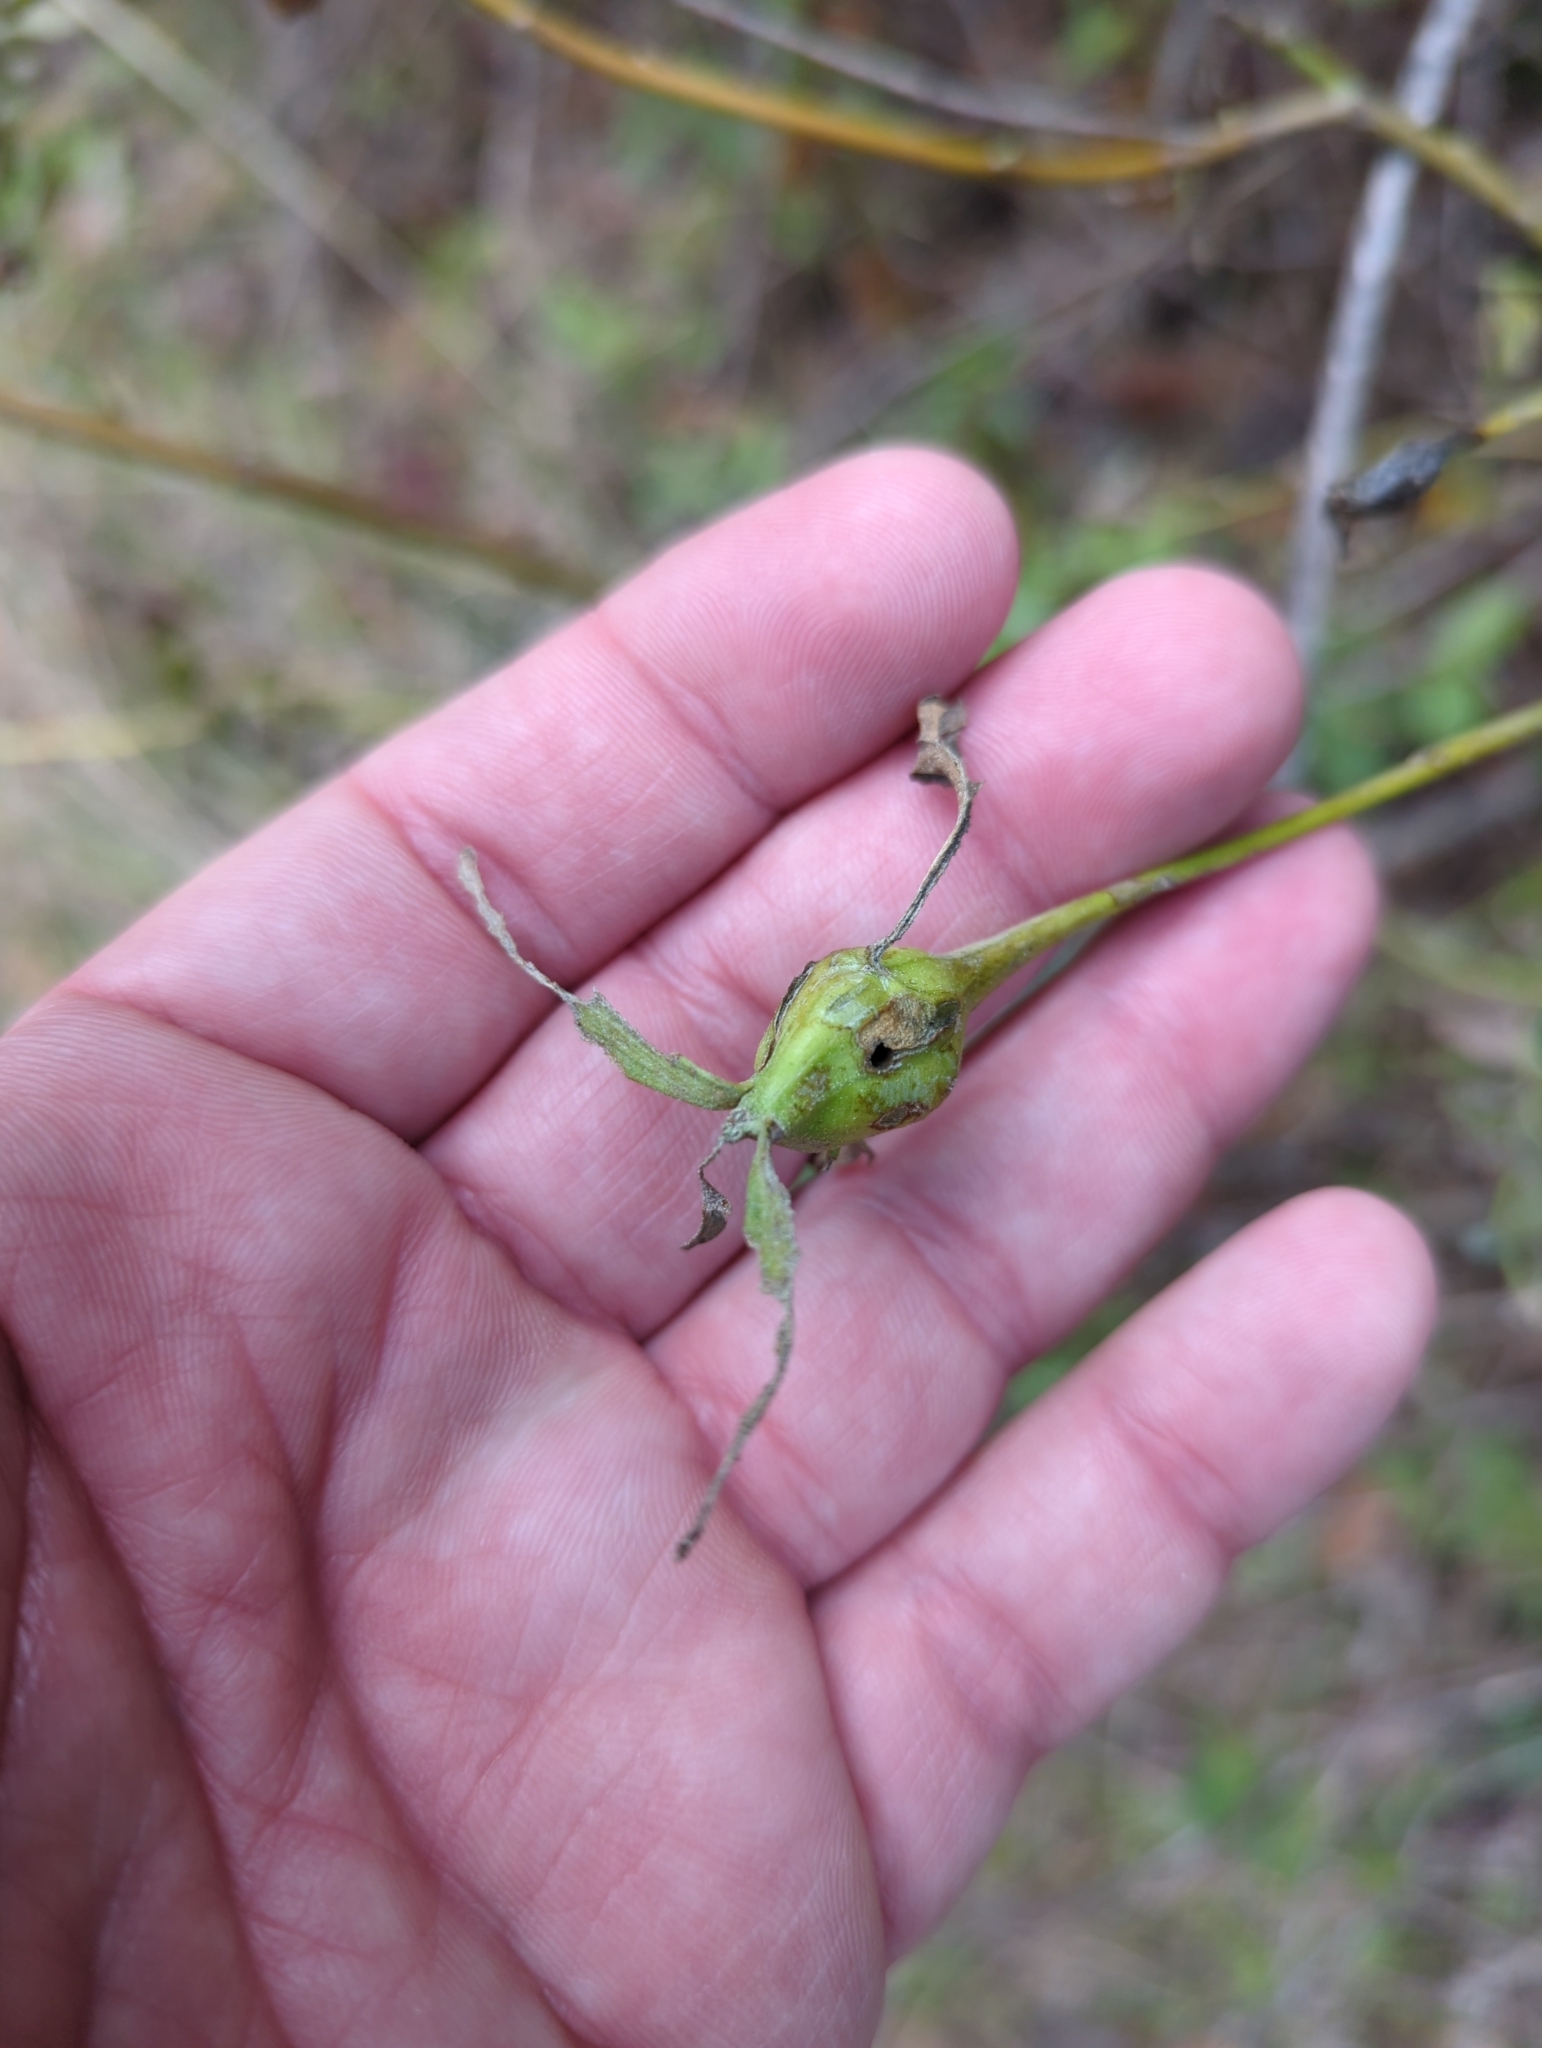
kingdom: Animalia
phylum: Arthropoda
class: Insecta
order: Lepidoptera
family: Gelechiidae
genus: Gnorimoschema
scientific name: Gnorimoschema baccharisella
